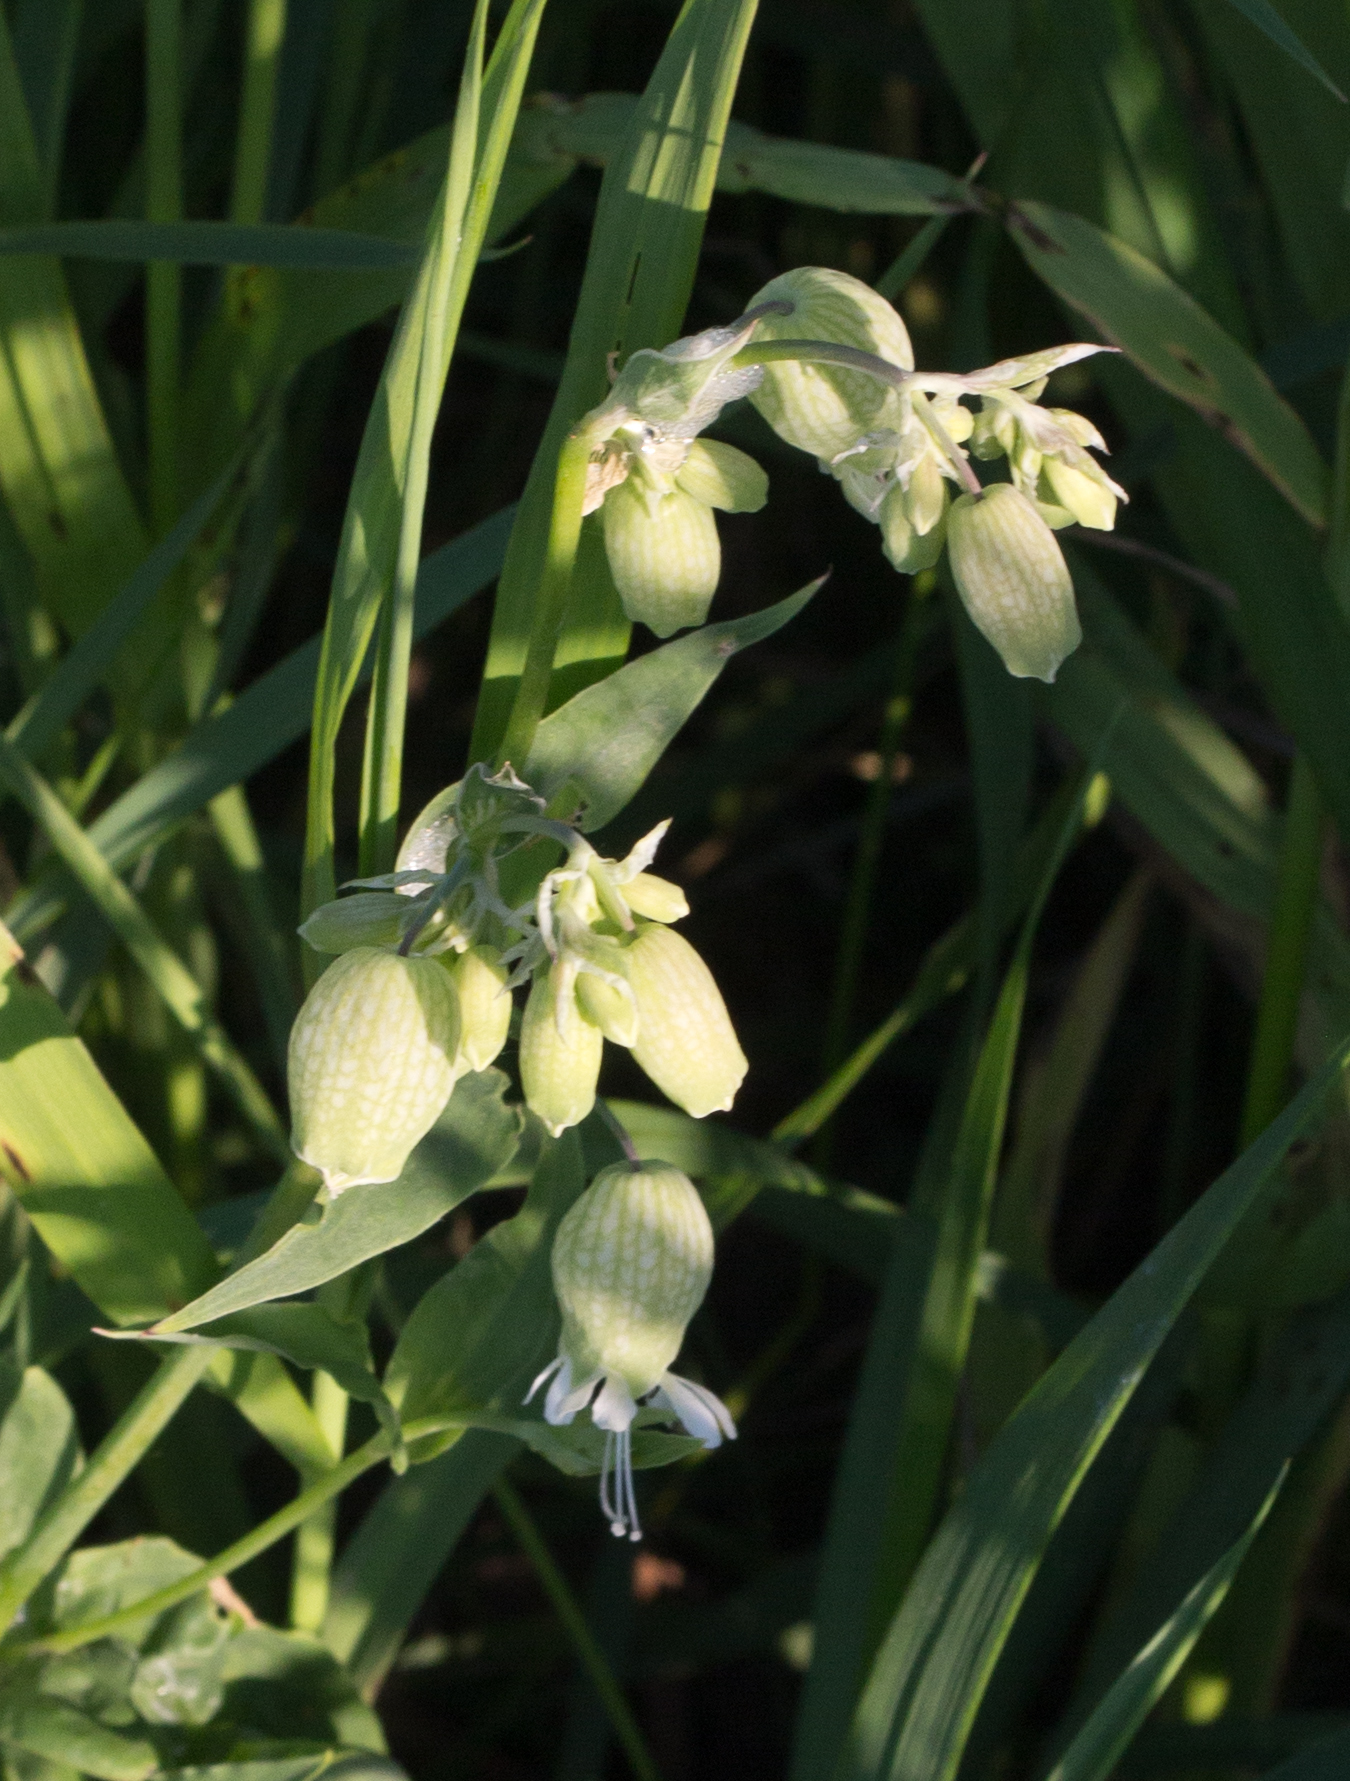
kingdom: Plantae
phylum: Tracheophyta
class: Magnoliopsida
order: Caryophyllales
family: Caryophyllaceae
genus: Silene
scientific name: Silene vulgaris
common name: Bladder campion
